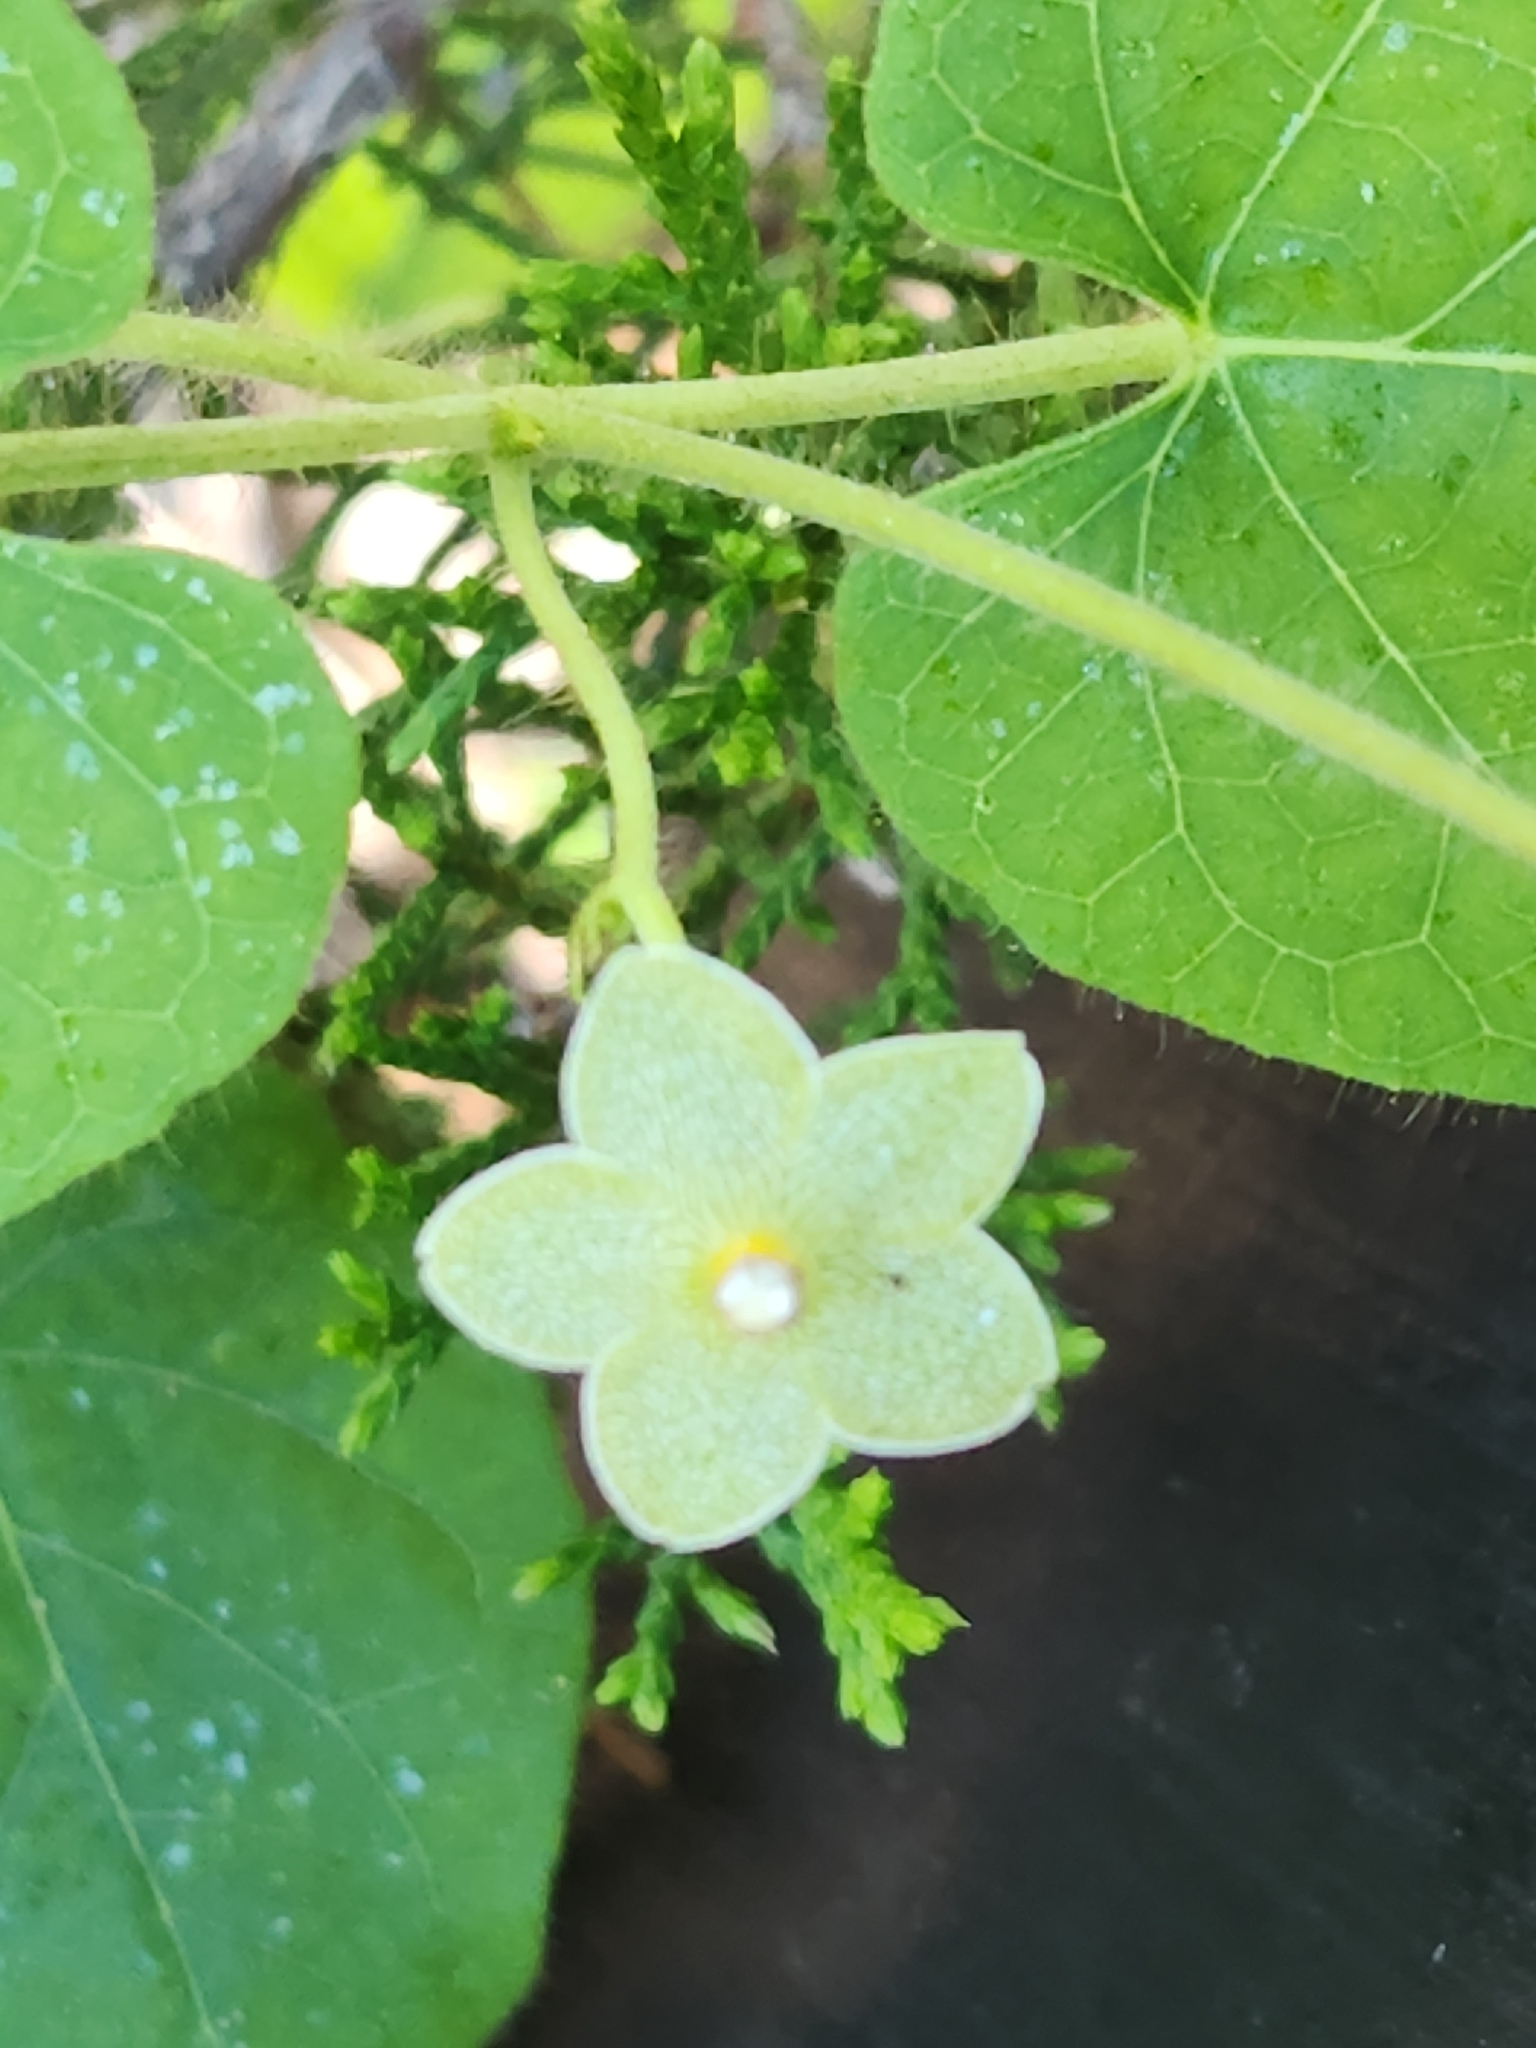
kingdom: Plantae
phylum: Tracheophyta
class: Magnoliopsida
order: Gentianales
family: Apocynaceae
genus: Dictyanthus
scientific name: Dictyanthus reticulatus
